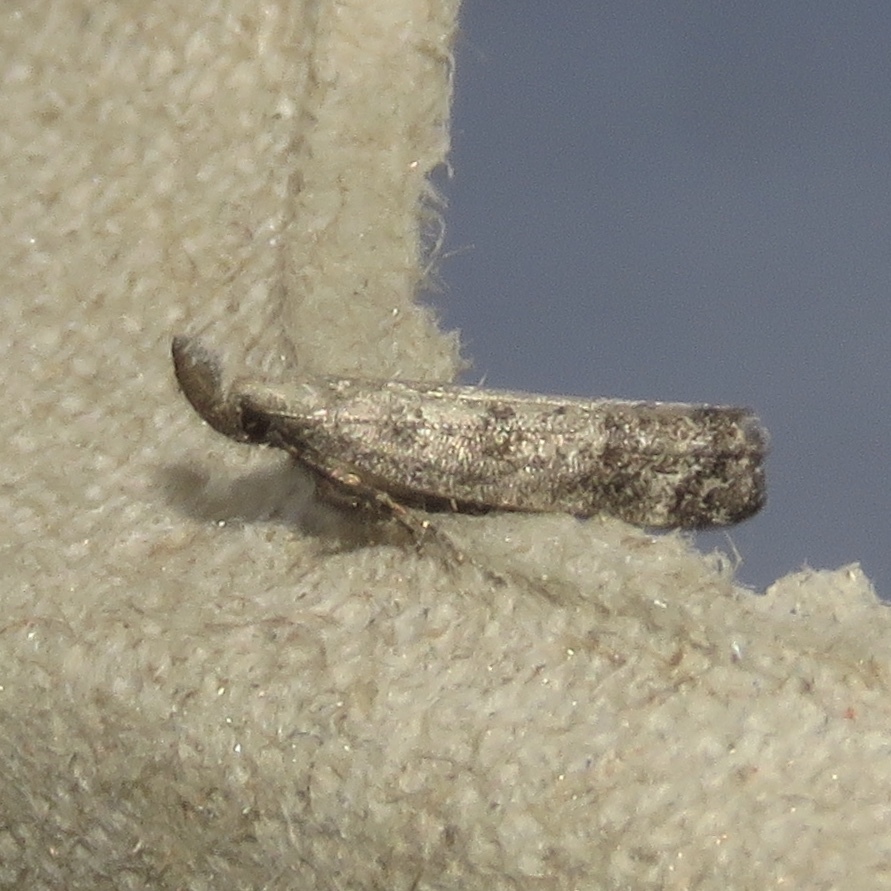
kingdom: Animalia
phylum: Arthropoda
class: Insecta
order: Lepidoptera
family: Gelechiidae
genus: Dichomeris
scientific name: Dichomeris inversella
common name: Inverse dichomeris moth
